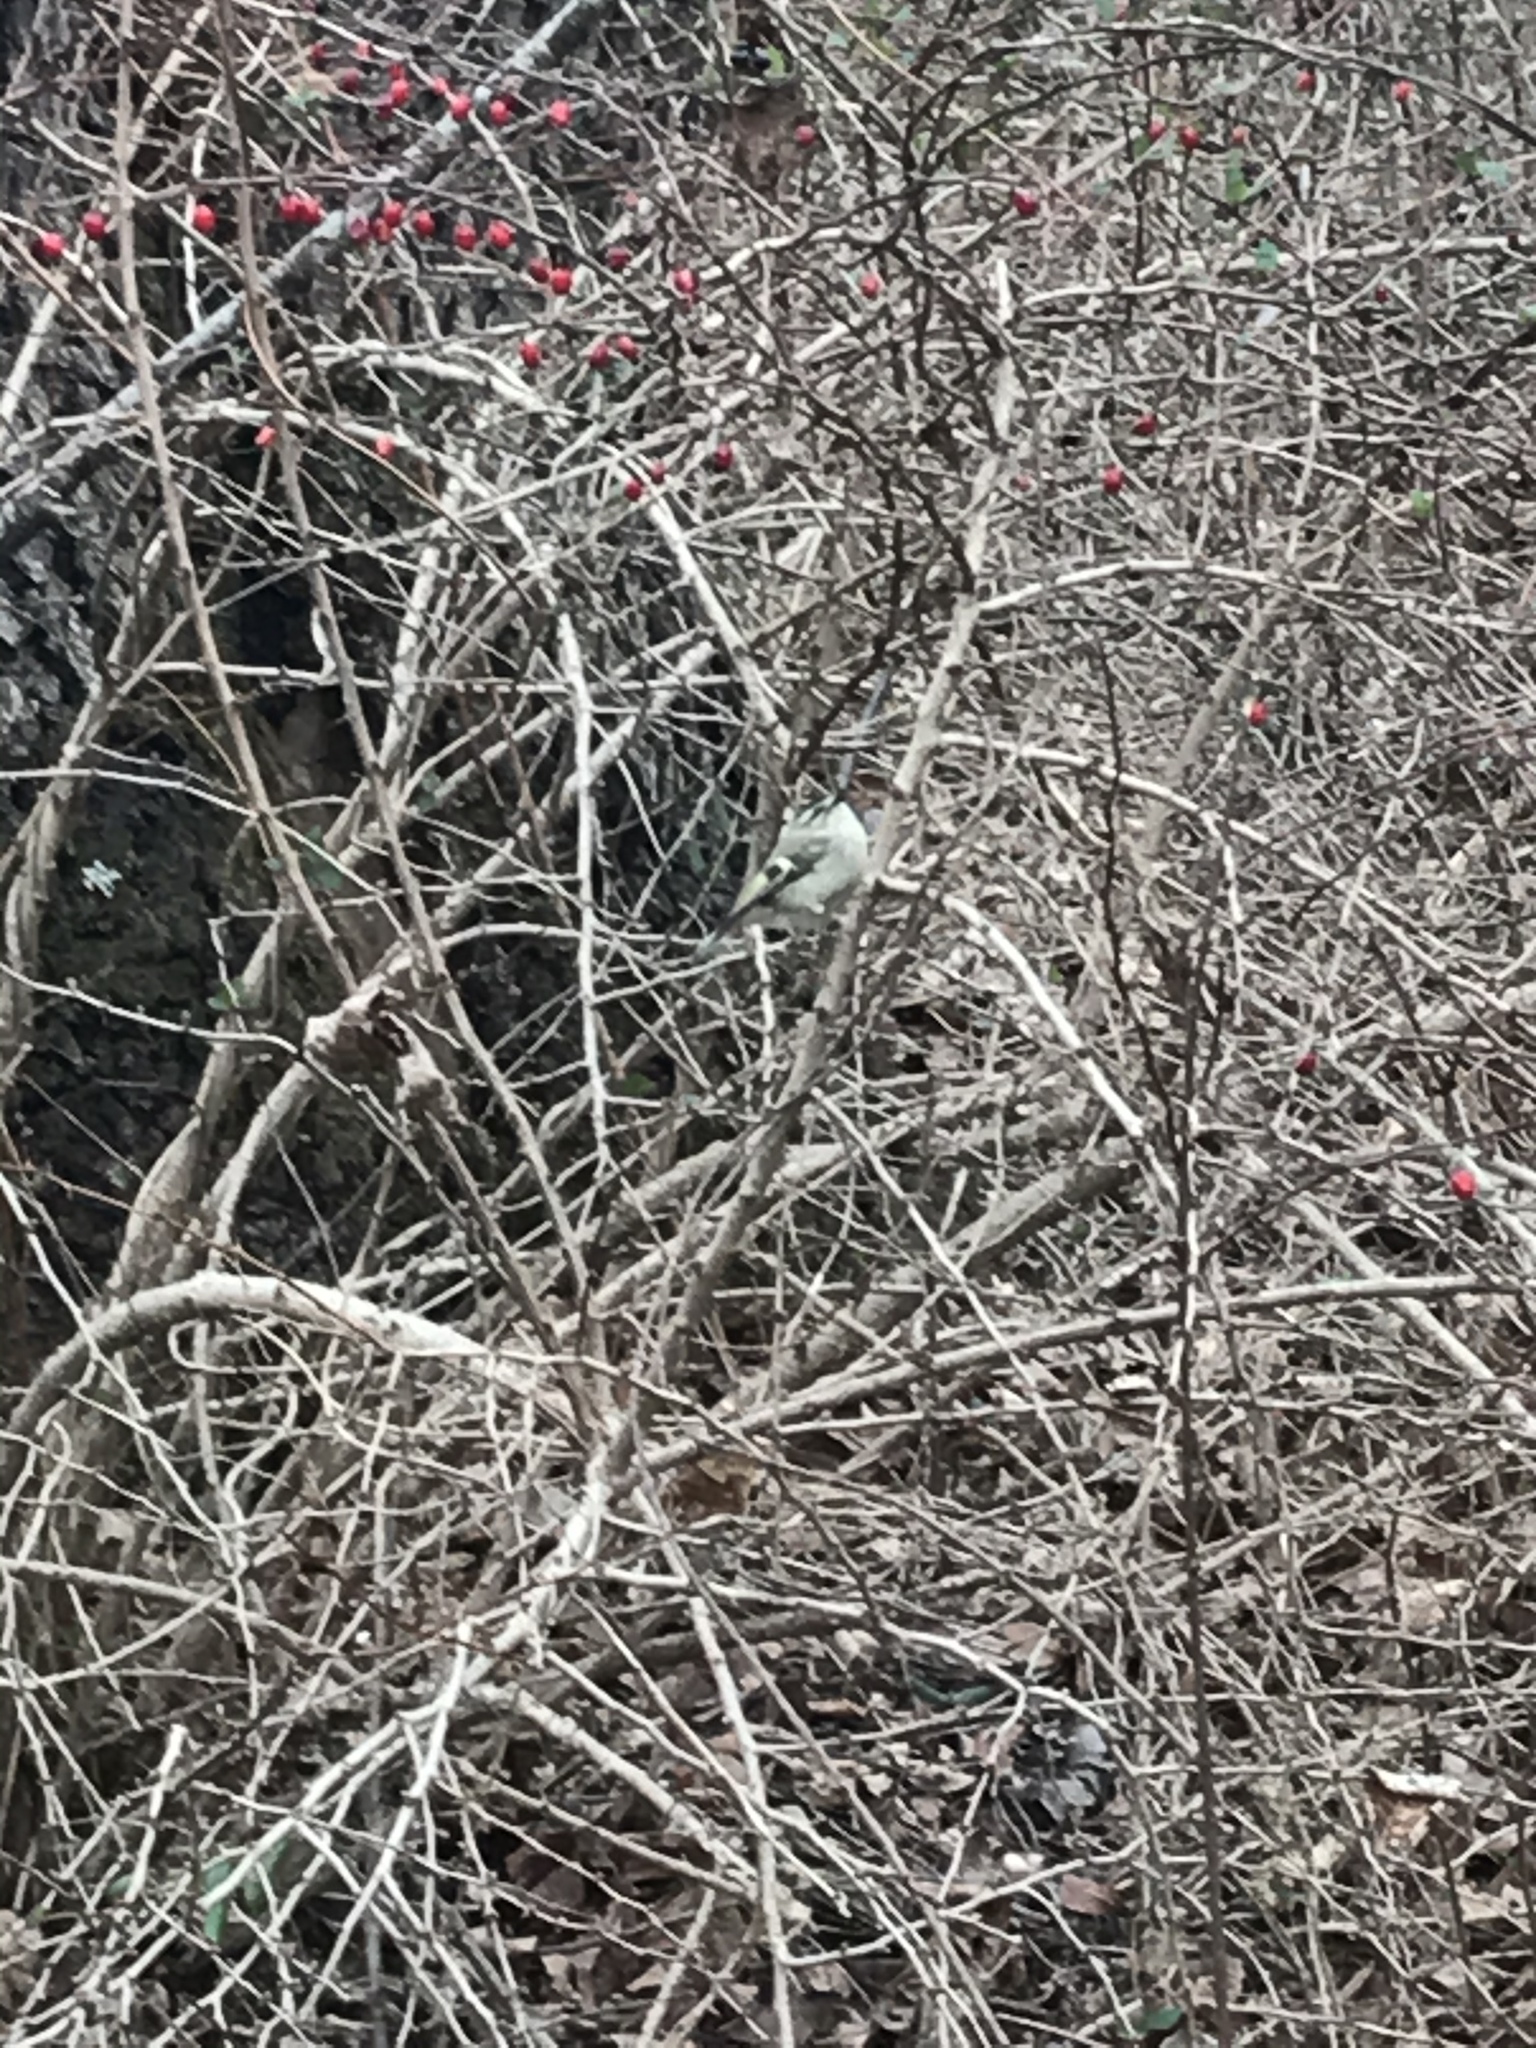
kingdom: Animalia
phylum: Chordata
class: Aves
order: Passeriformes
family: Regulidae
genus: Regulus
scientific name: Regulus satrapa
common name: Golden-crowned kinglet
